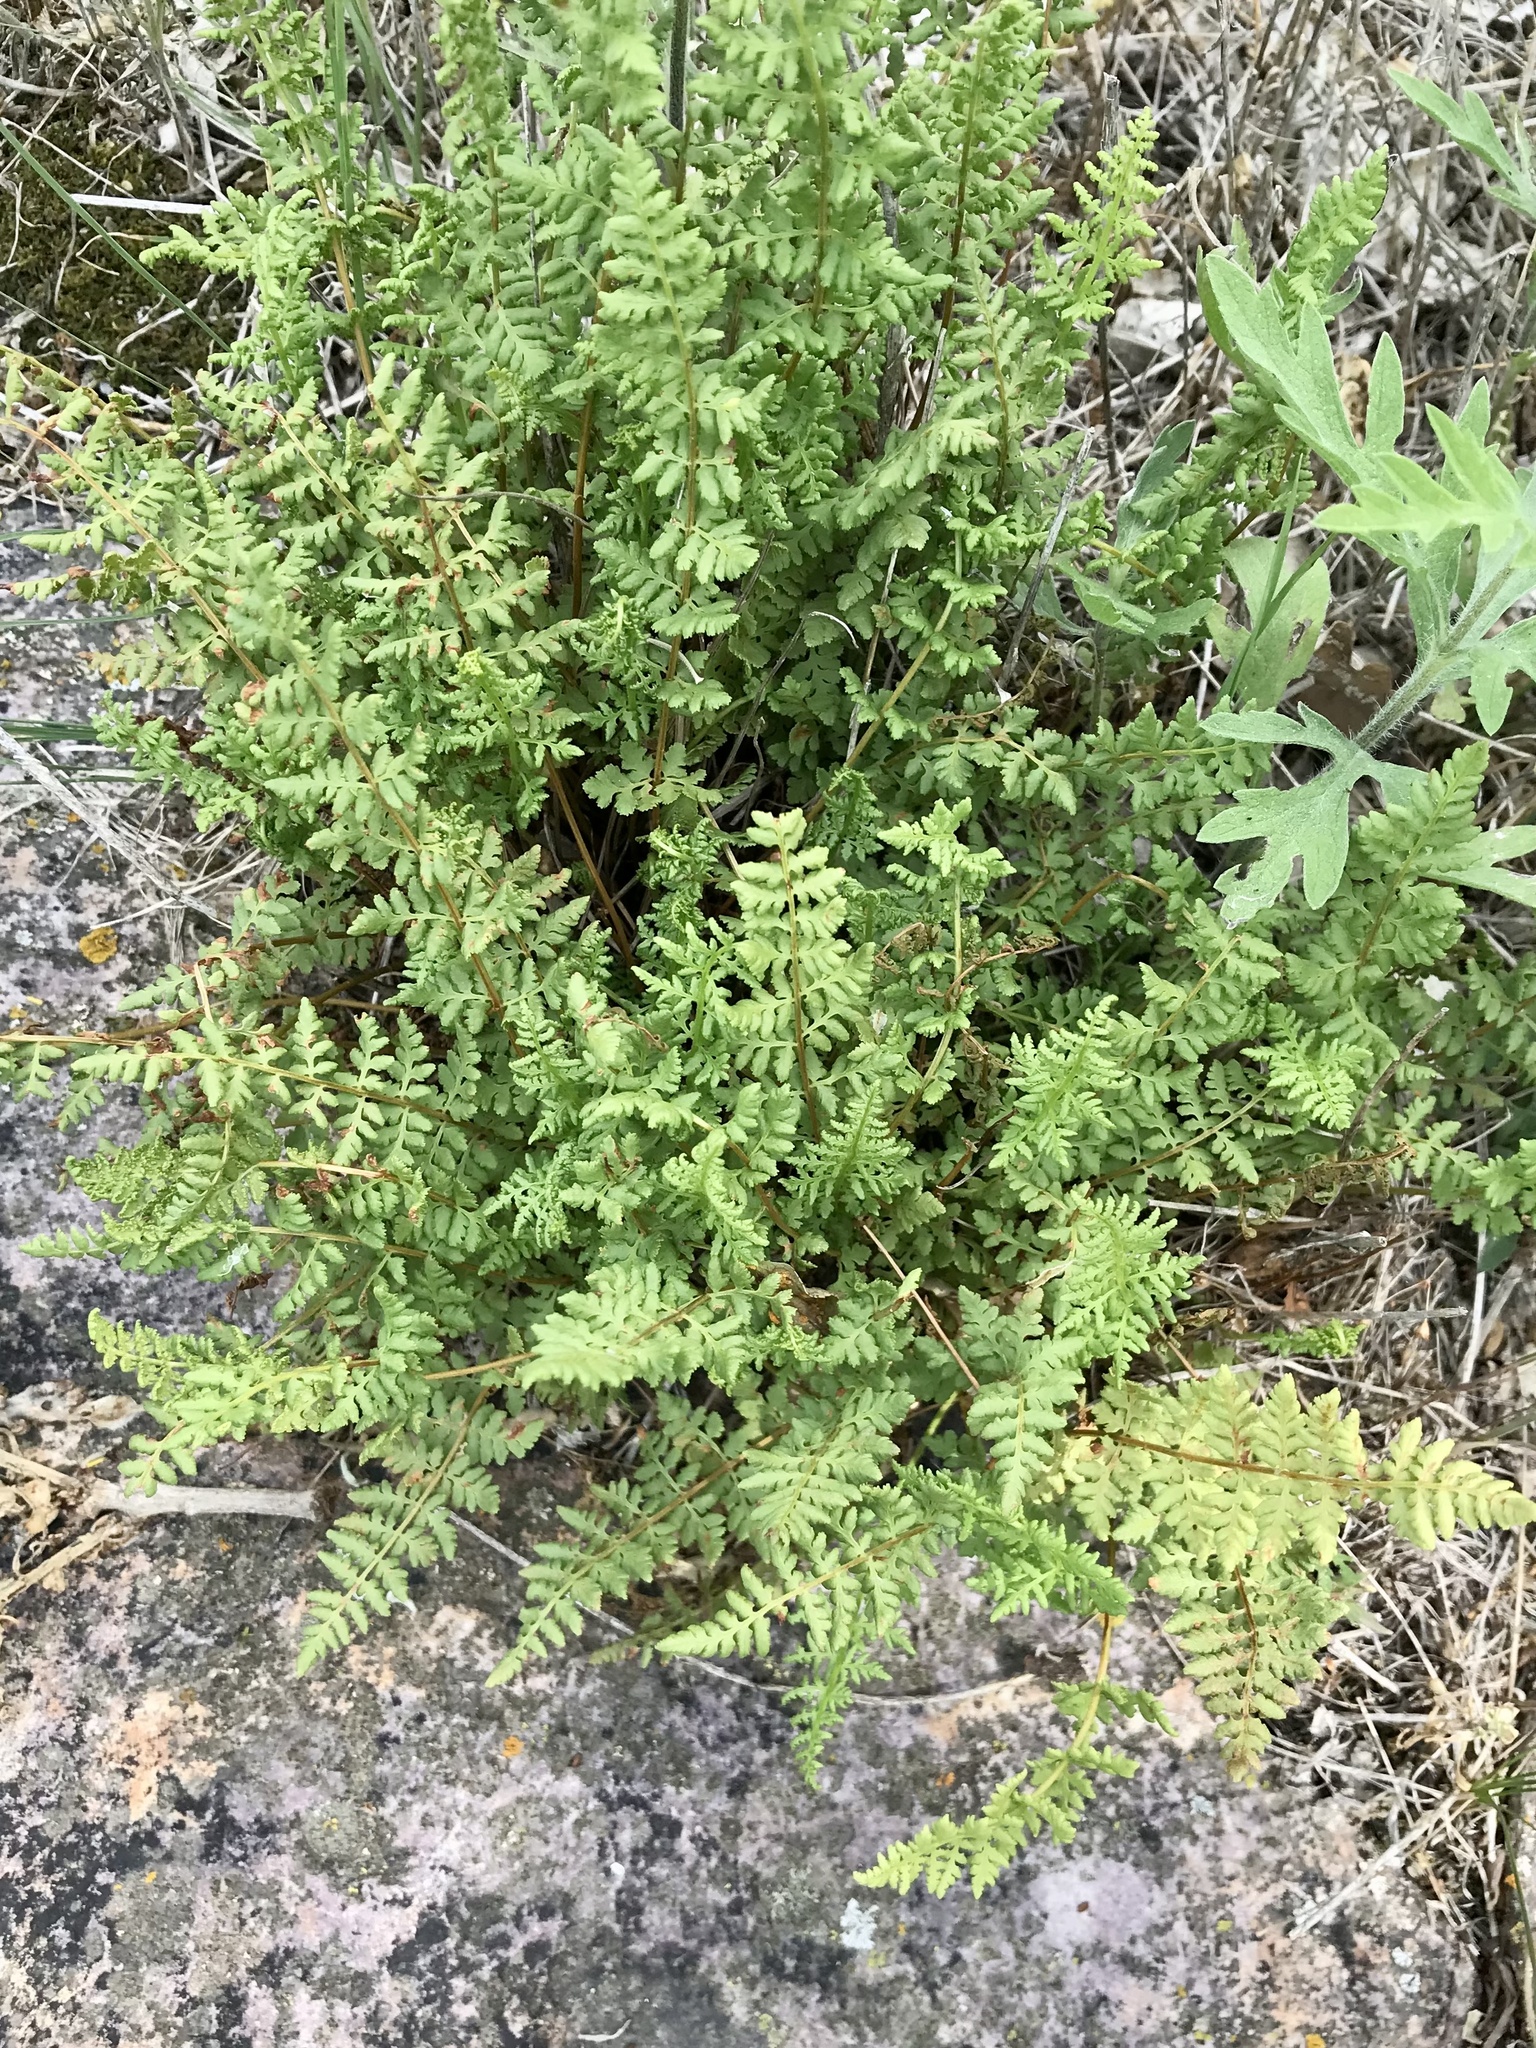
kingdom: Plantae
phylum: Tracheophyta
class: Polypodiopsida
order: Polypodiales
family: Woodsiaceae
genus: Physematium
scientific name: Physematium oreganum
